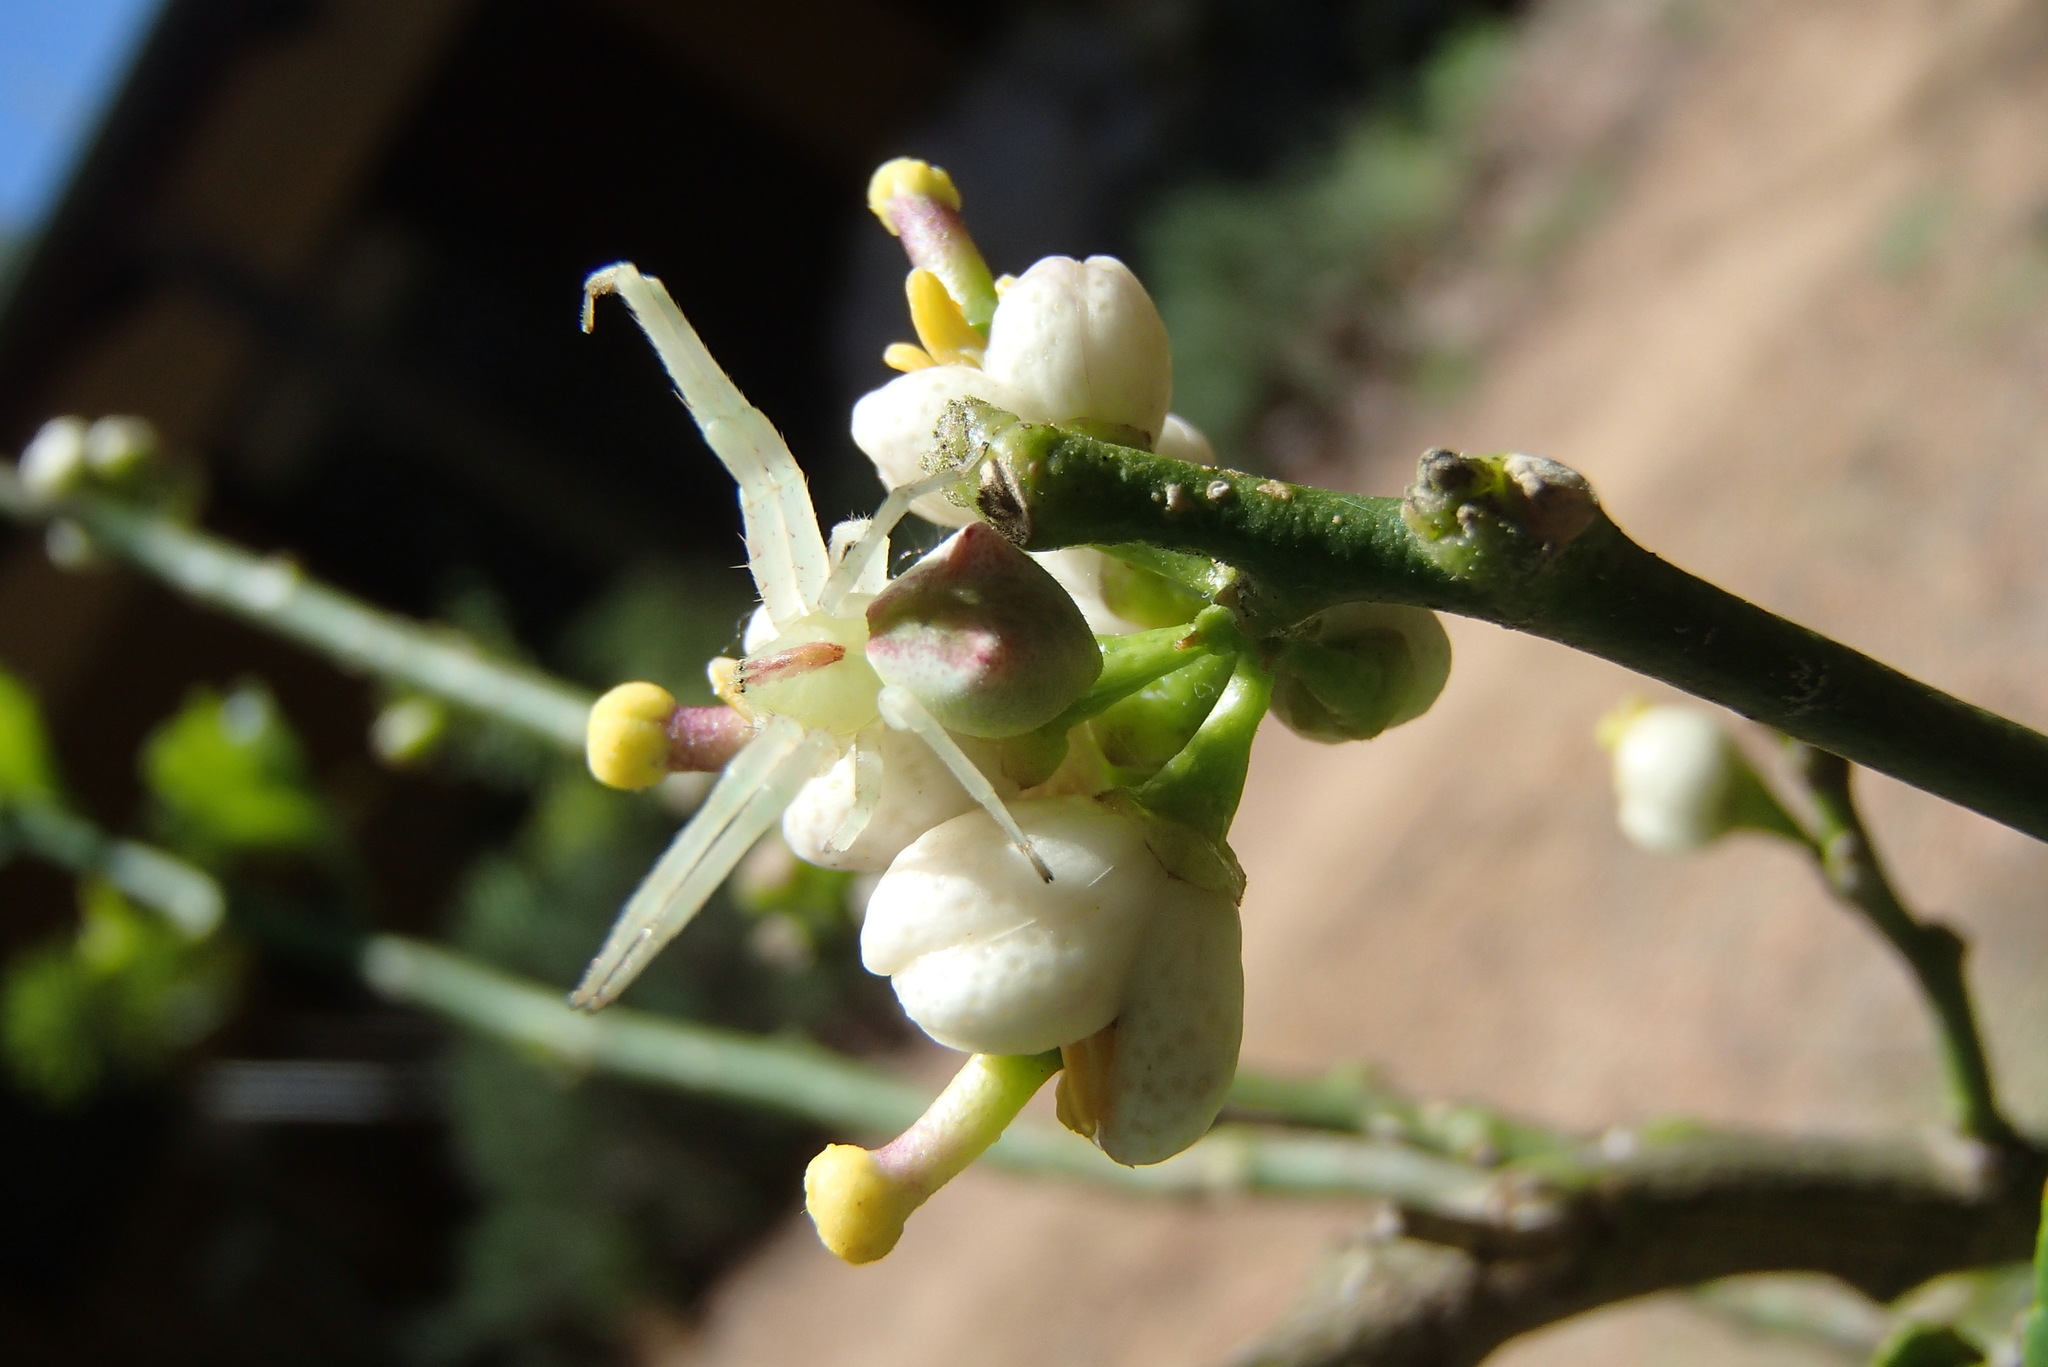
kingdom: Animalia
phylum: Arthropoda
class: Arachnida
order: Araneae
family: Thomisidae
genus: Sidymella
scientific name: Sidymella rubrosignata
